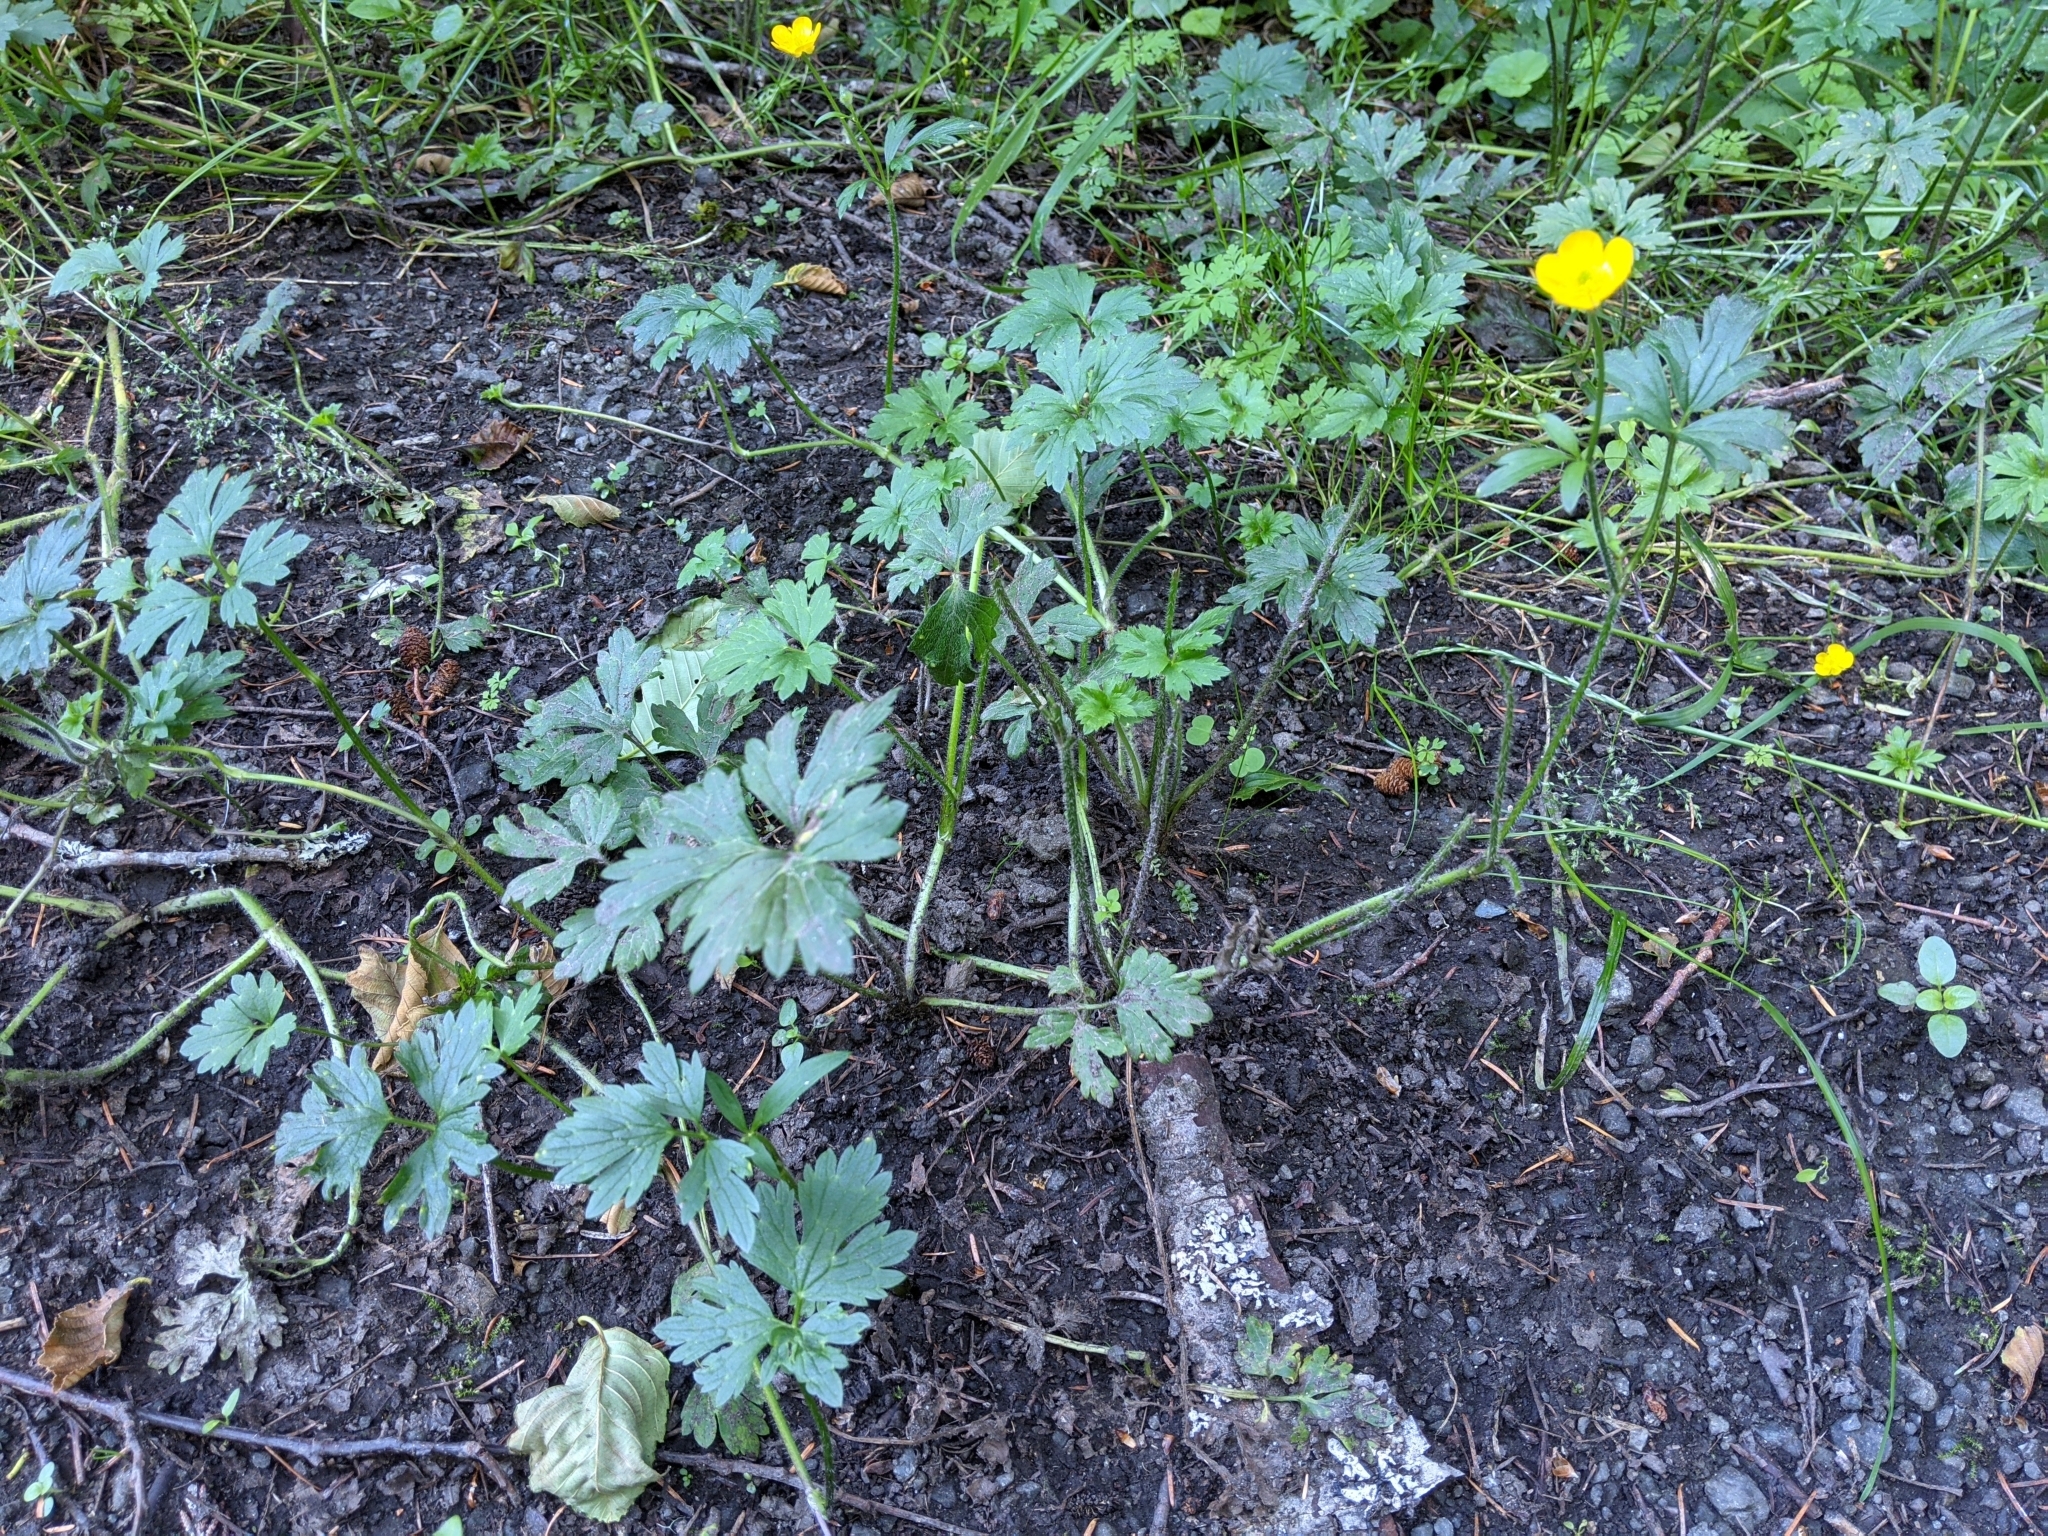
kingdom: Plantae
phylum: Tracheophyta
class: Magnoliopsida
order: Ranunculales
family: Ranunculaceae
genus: Ranunculus
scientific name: Ranunculus repens
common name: Creeping buttercup
